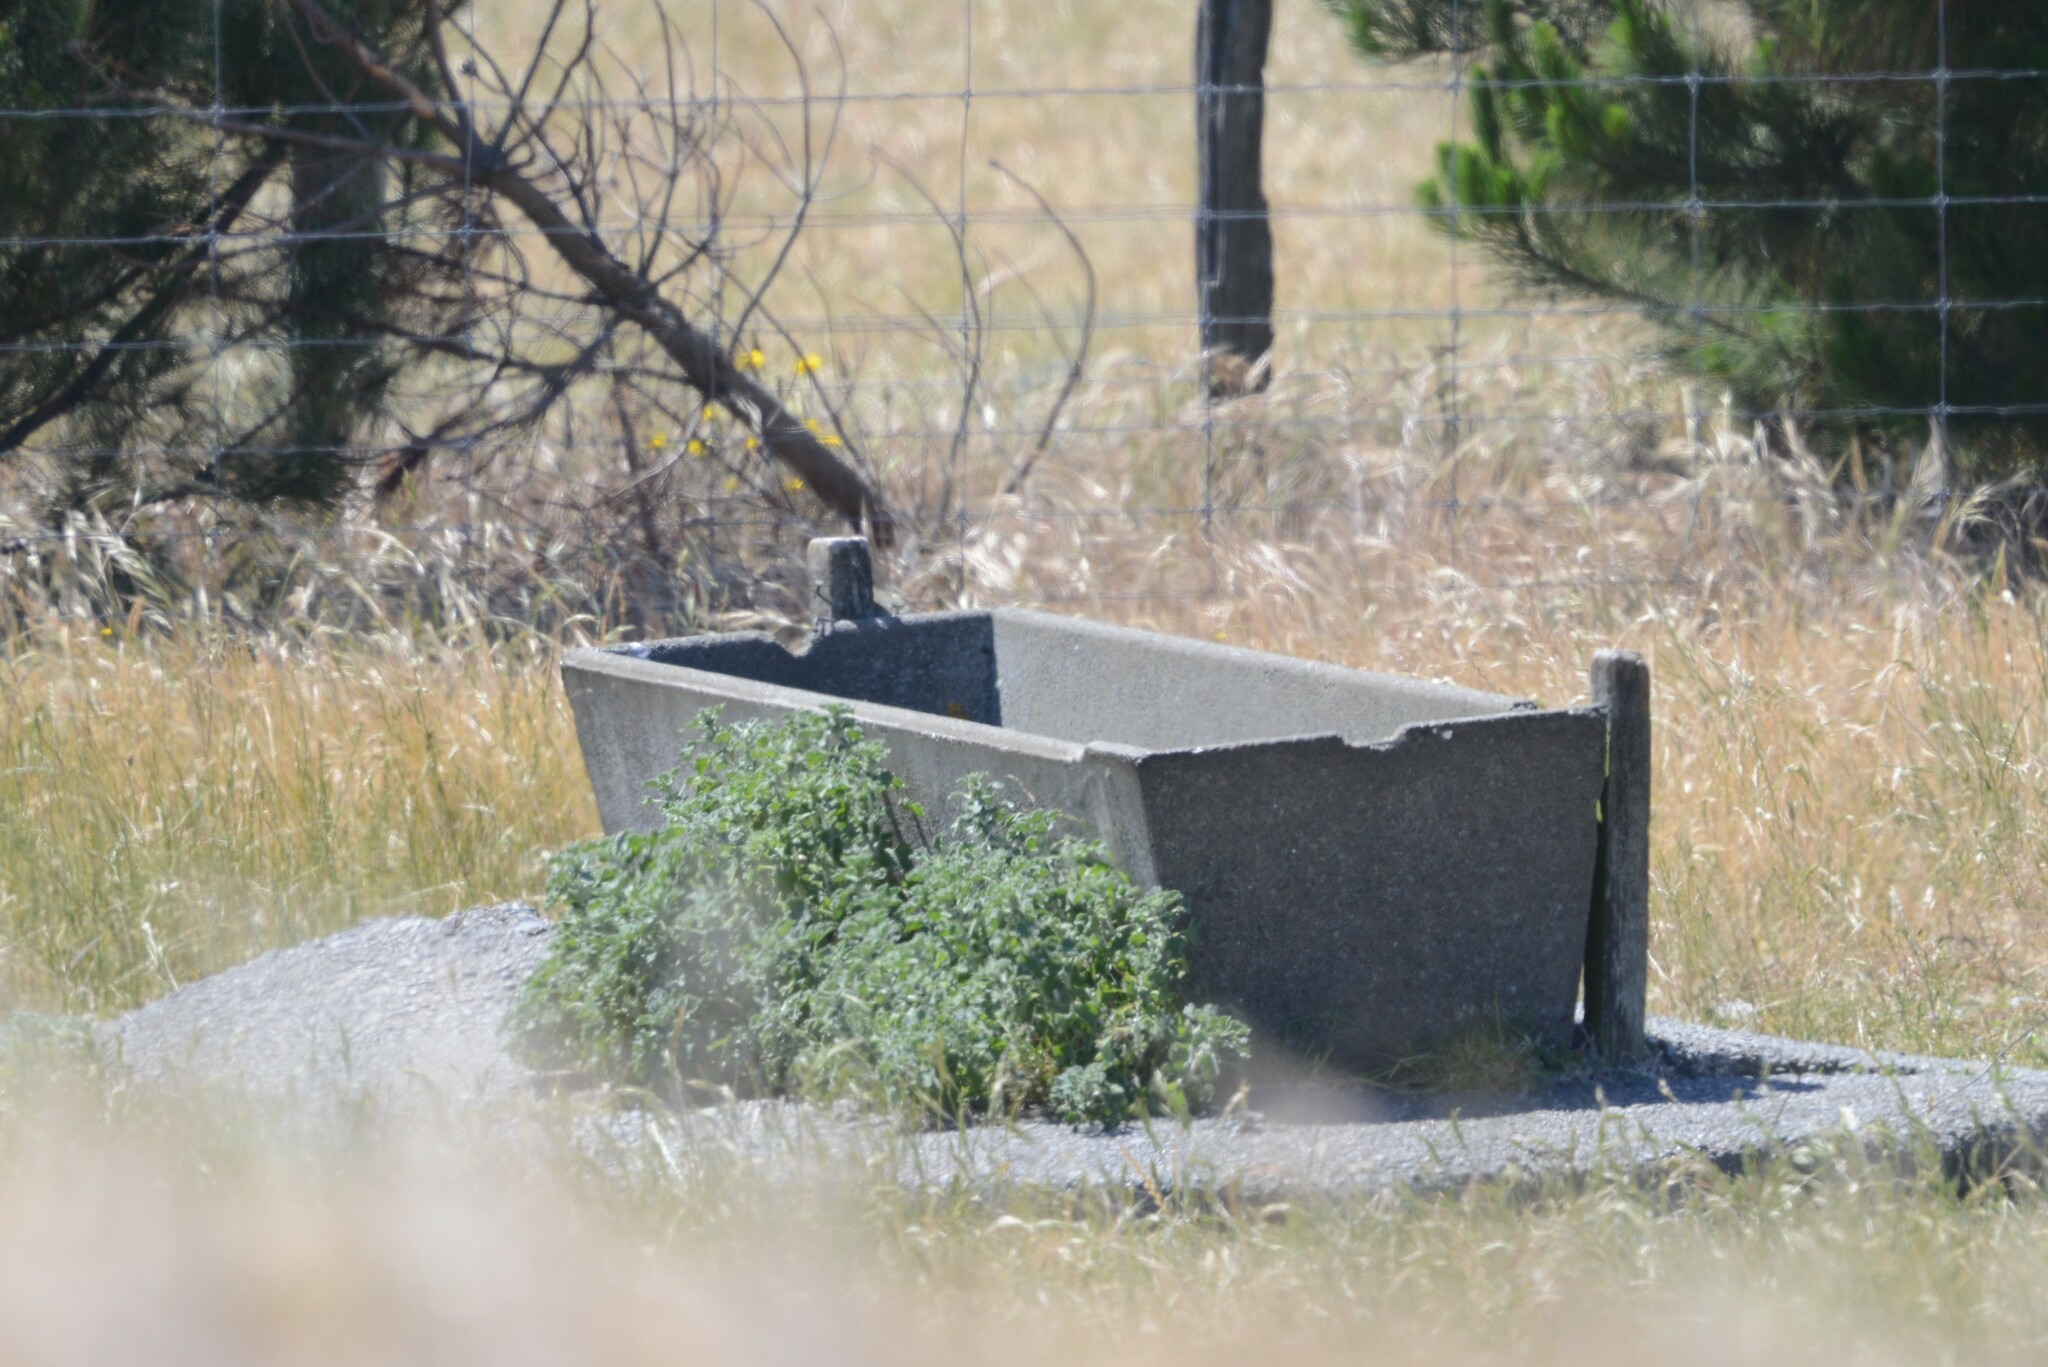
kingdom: Plantae
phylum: Tracheophyta
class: Magnoliopsida
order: Lamiales
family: Lamiaceae
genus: Marrubium
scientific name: Marrubium vulgare
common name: Horehound
